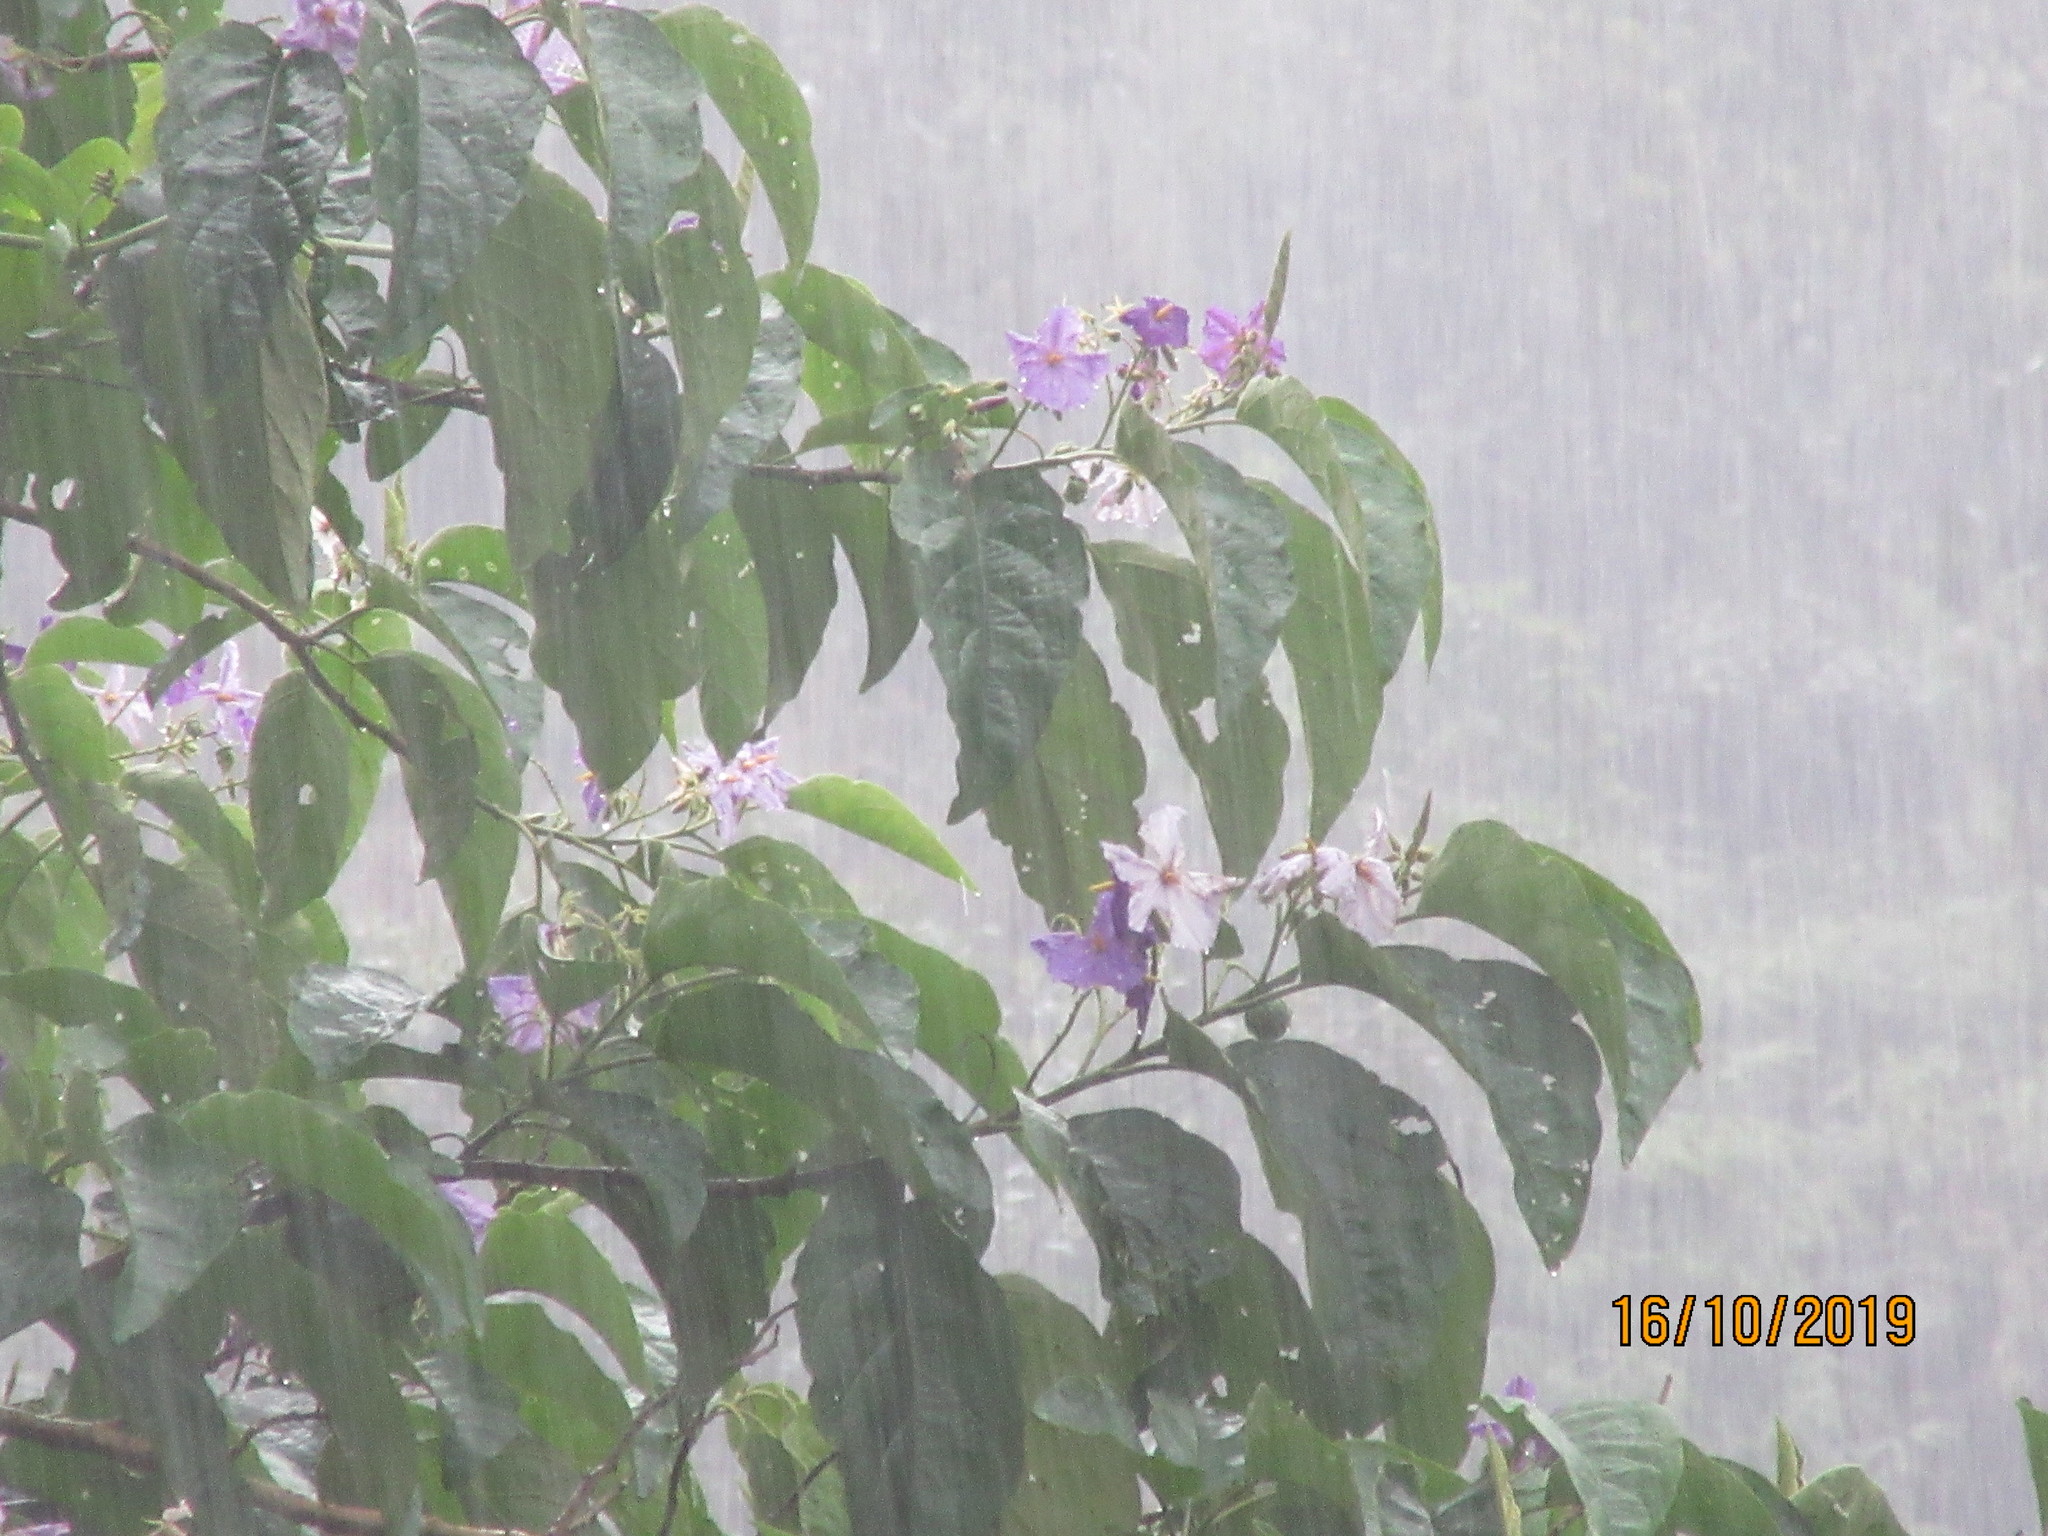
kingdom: Plantae
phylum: Tracheophyta
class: Magnoliopsida
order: Solanales
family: Solanaceae
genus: Solanum
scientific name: Solanum grandiflorum
